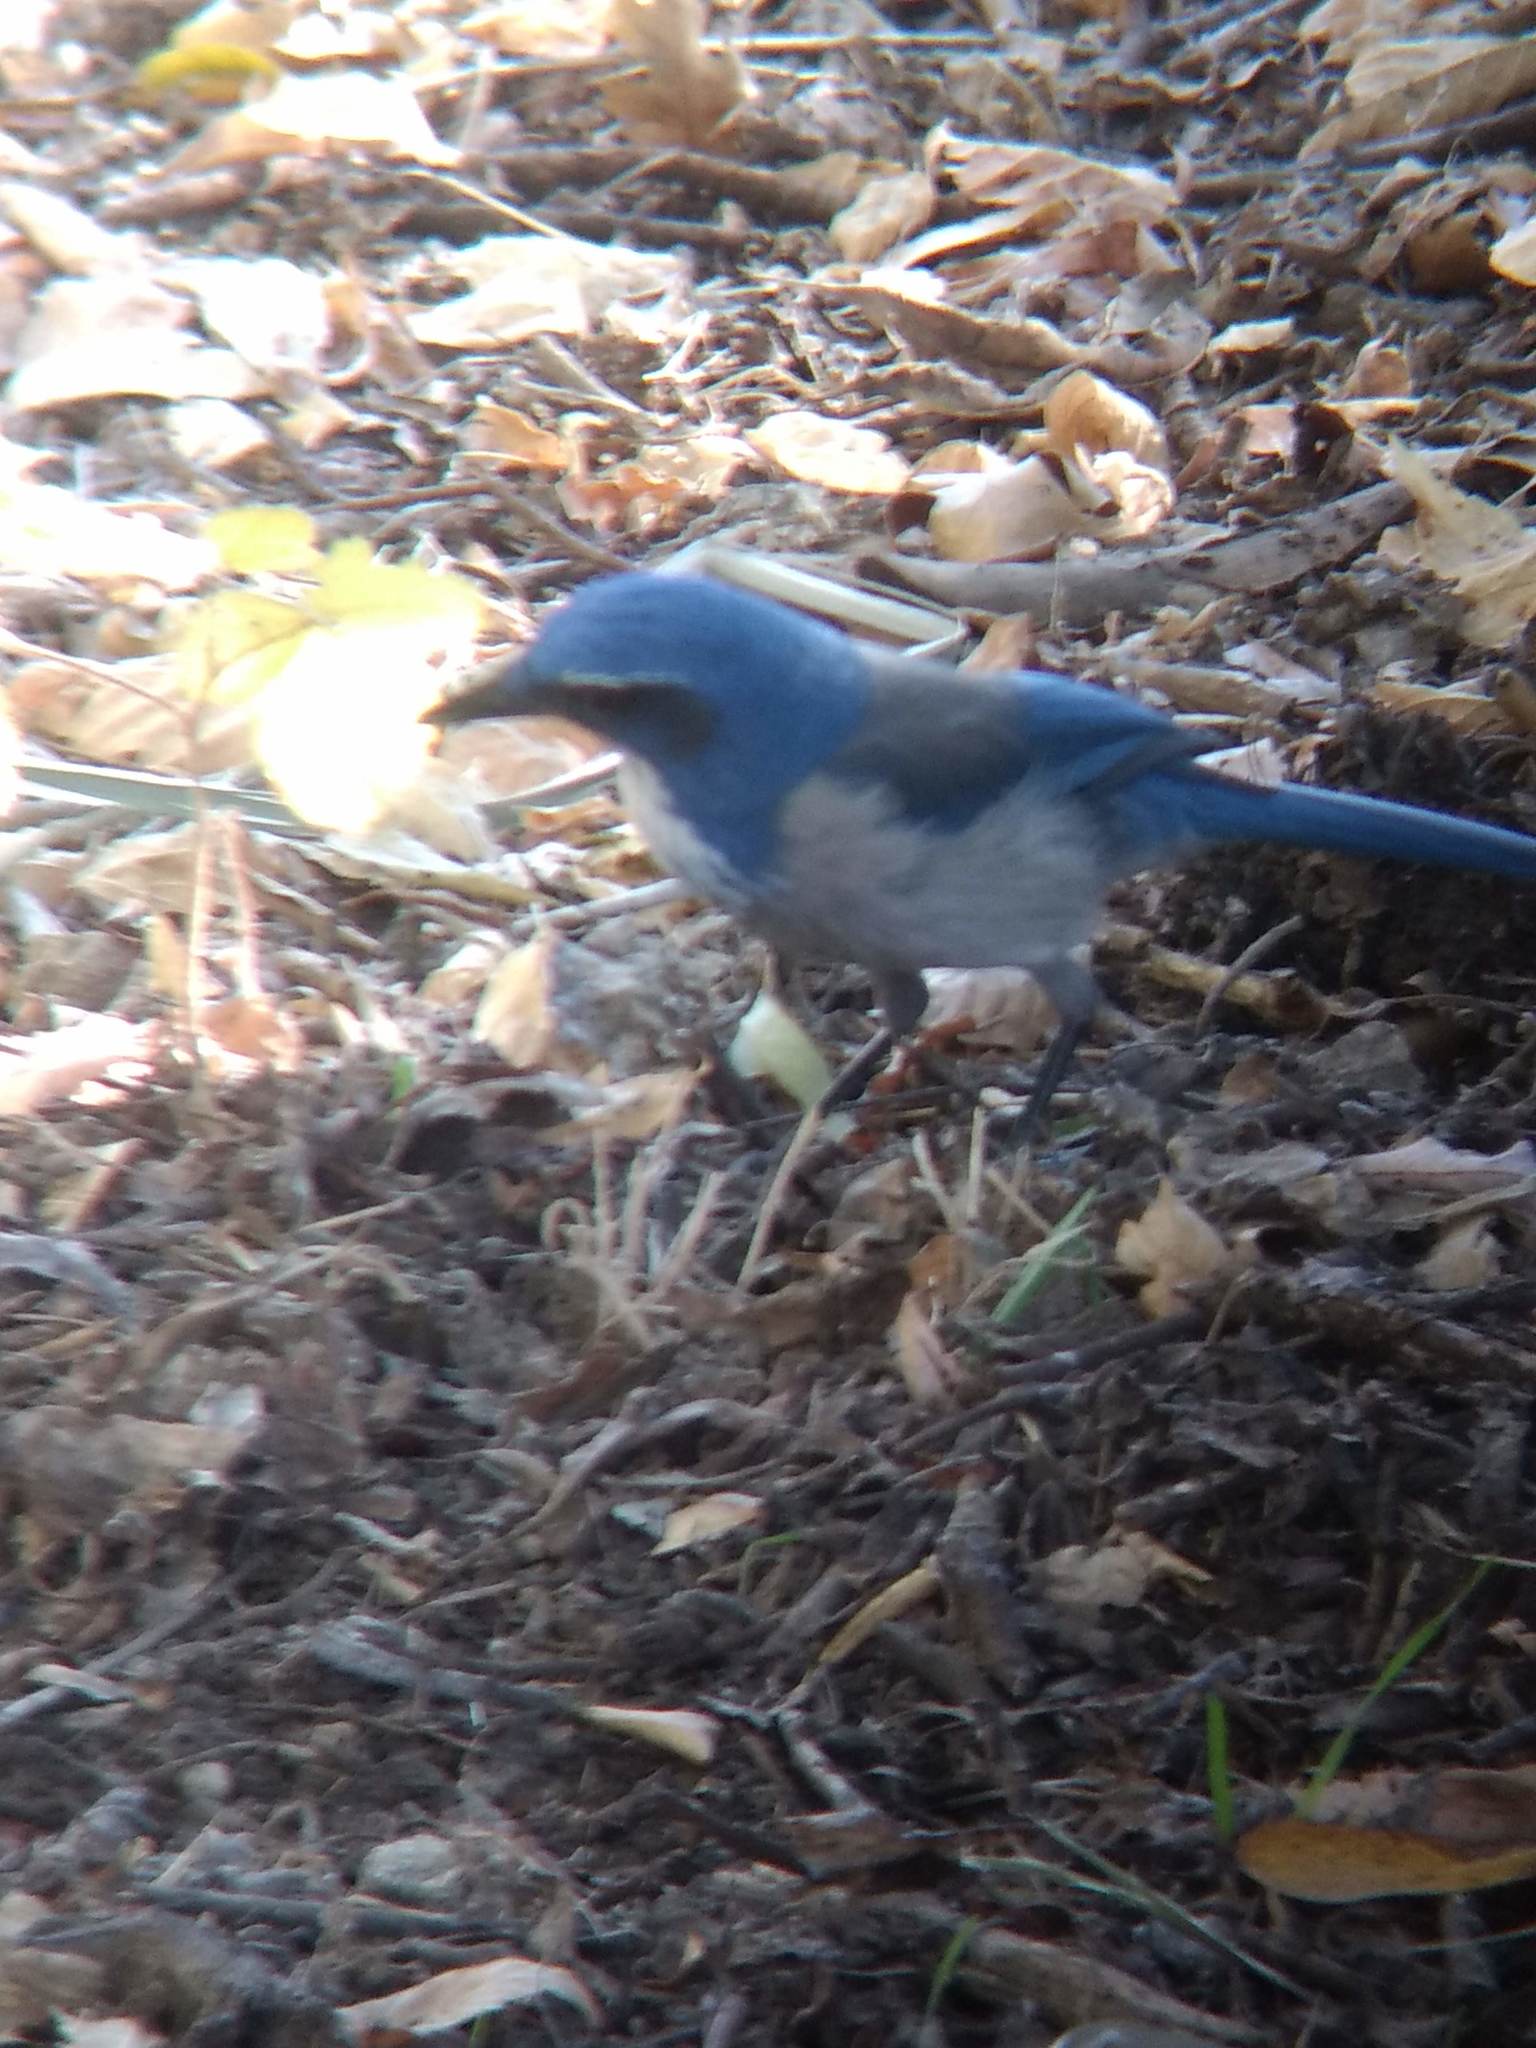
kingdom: Animalia
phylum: Chordata
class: Aves
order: Passeriformes
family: Corvidae
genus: Aphelocoma
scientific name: Aphelocoma californica
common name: California scrub-jay
